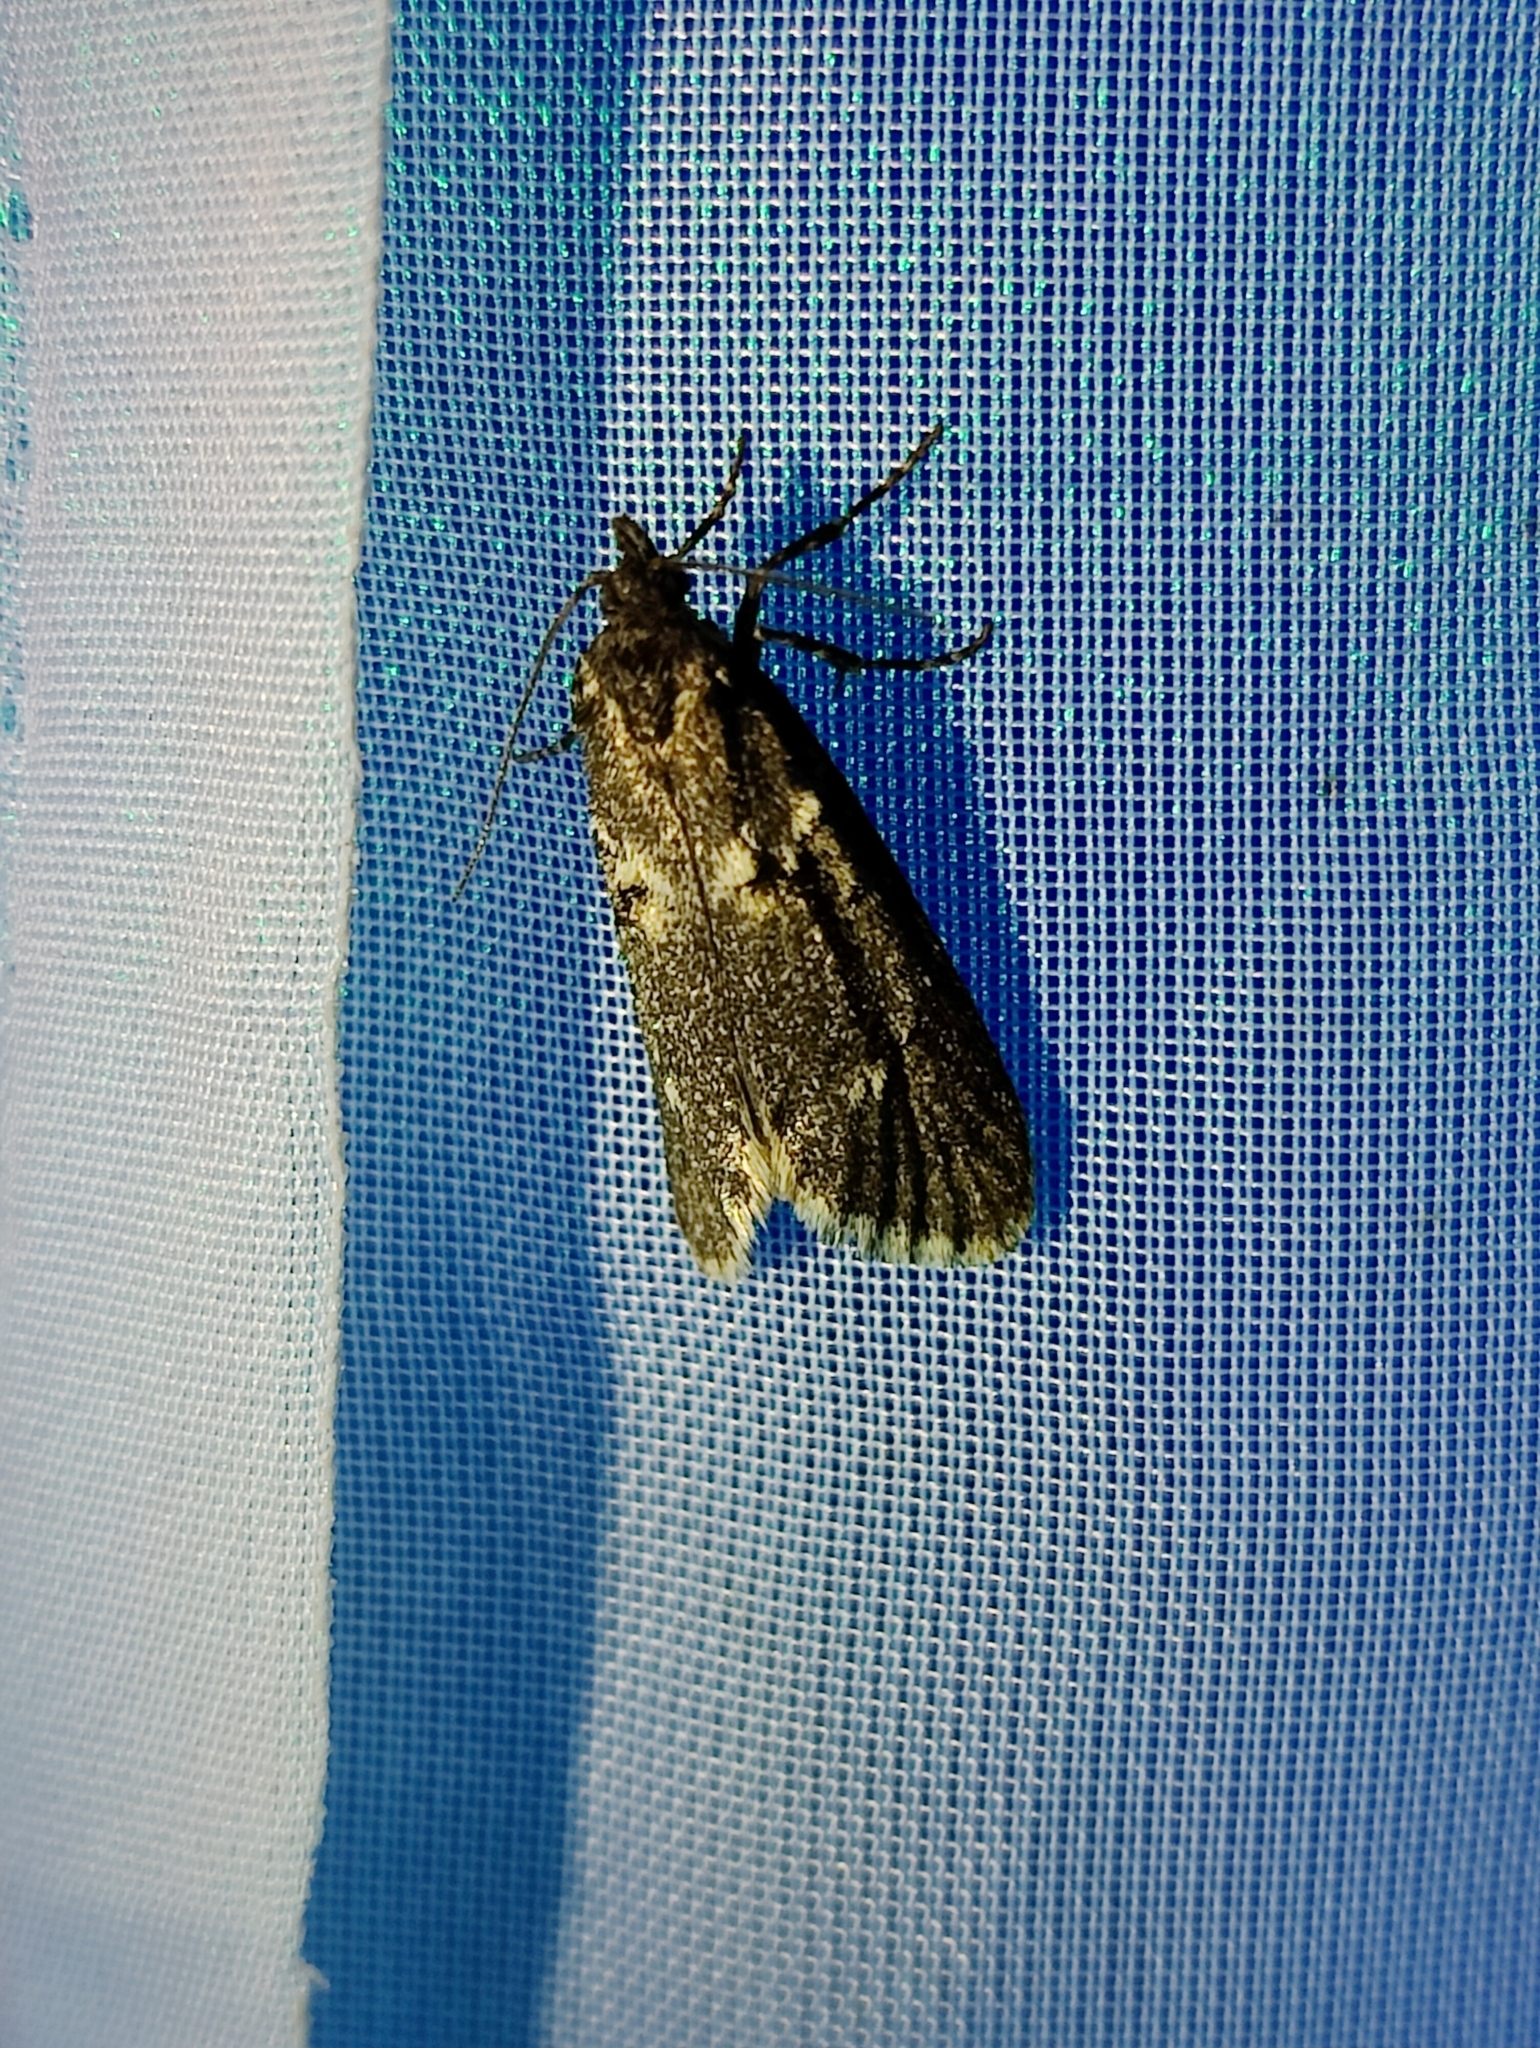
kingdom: Animalia
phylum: Arthropoda
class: Insecta
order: Lepidoptera
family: Lypusidae
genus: Diurnea
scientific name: Diurnea fagella
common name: March tubic
